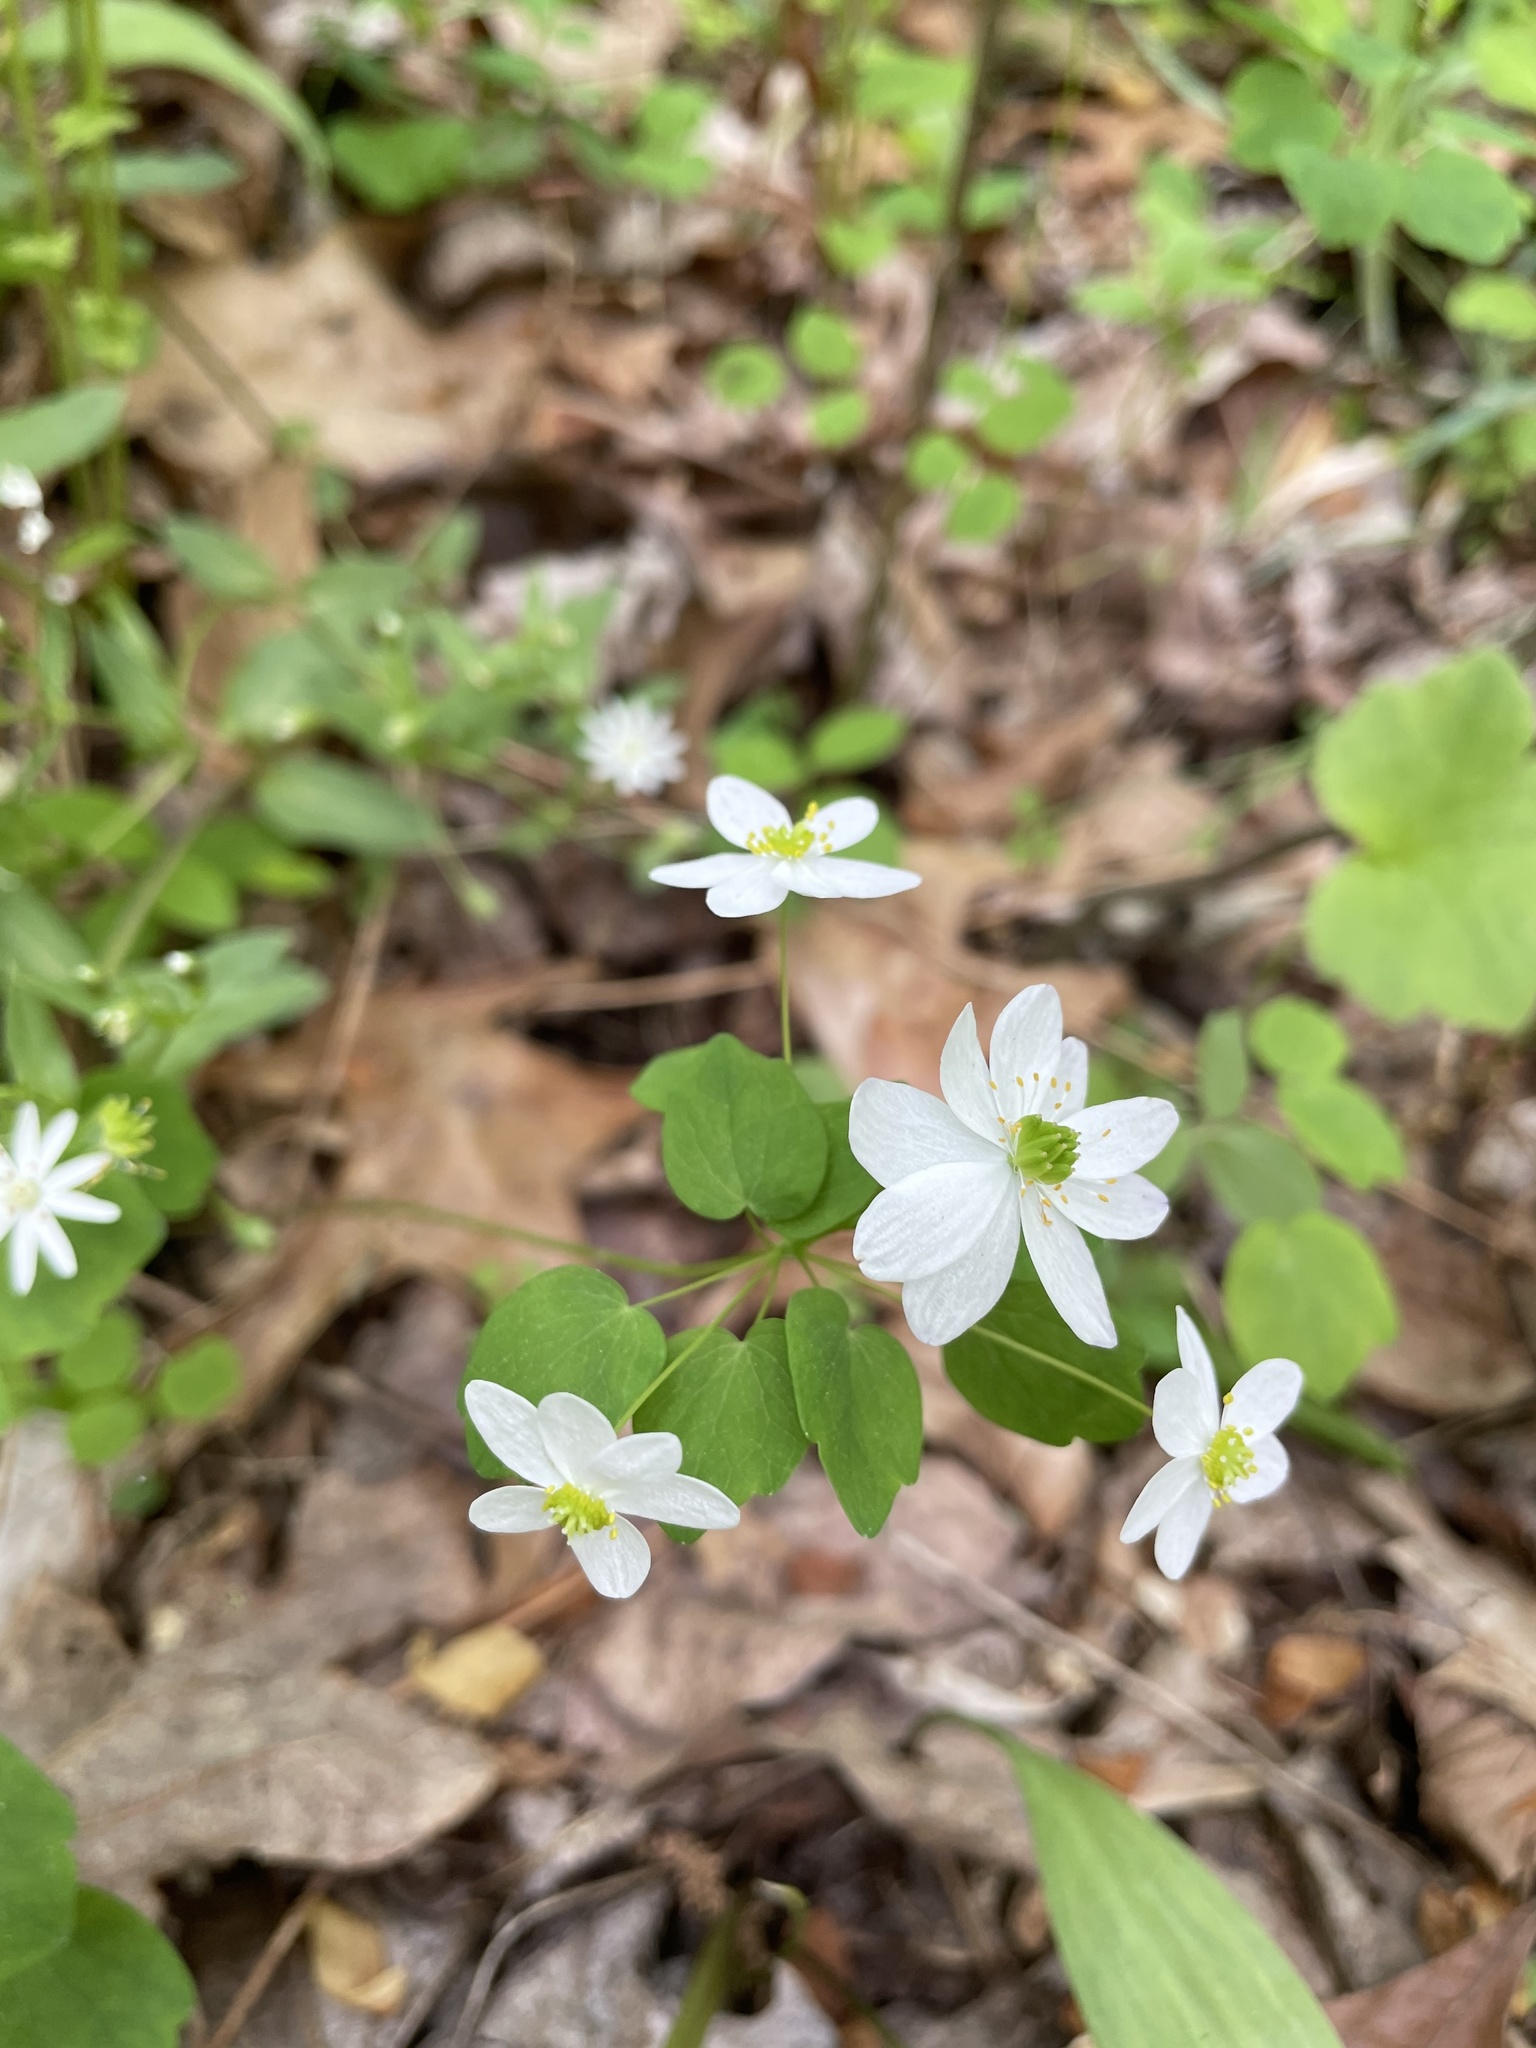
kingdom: Plantae
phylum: Tracheophyta
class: Magnoliopsida
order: Ranunculales
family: Ranunculaceae
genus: Thalictrum
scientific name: Thalictrum thalictroides
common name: Rue-anemone
